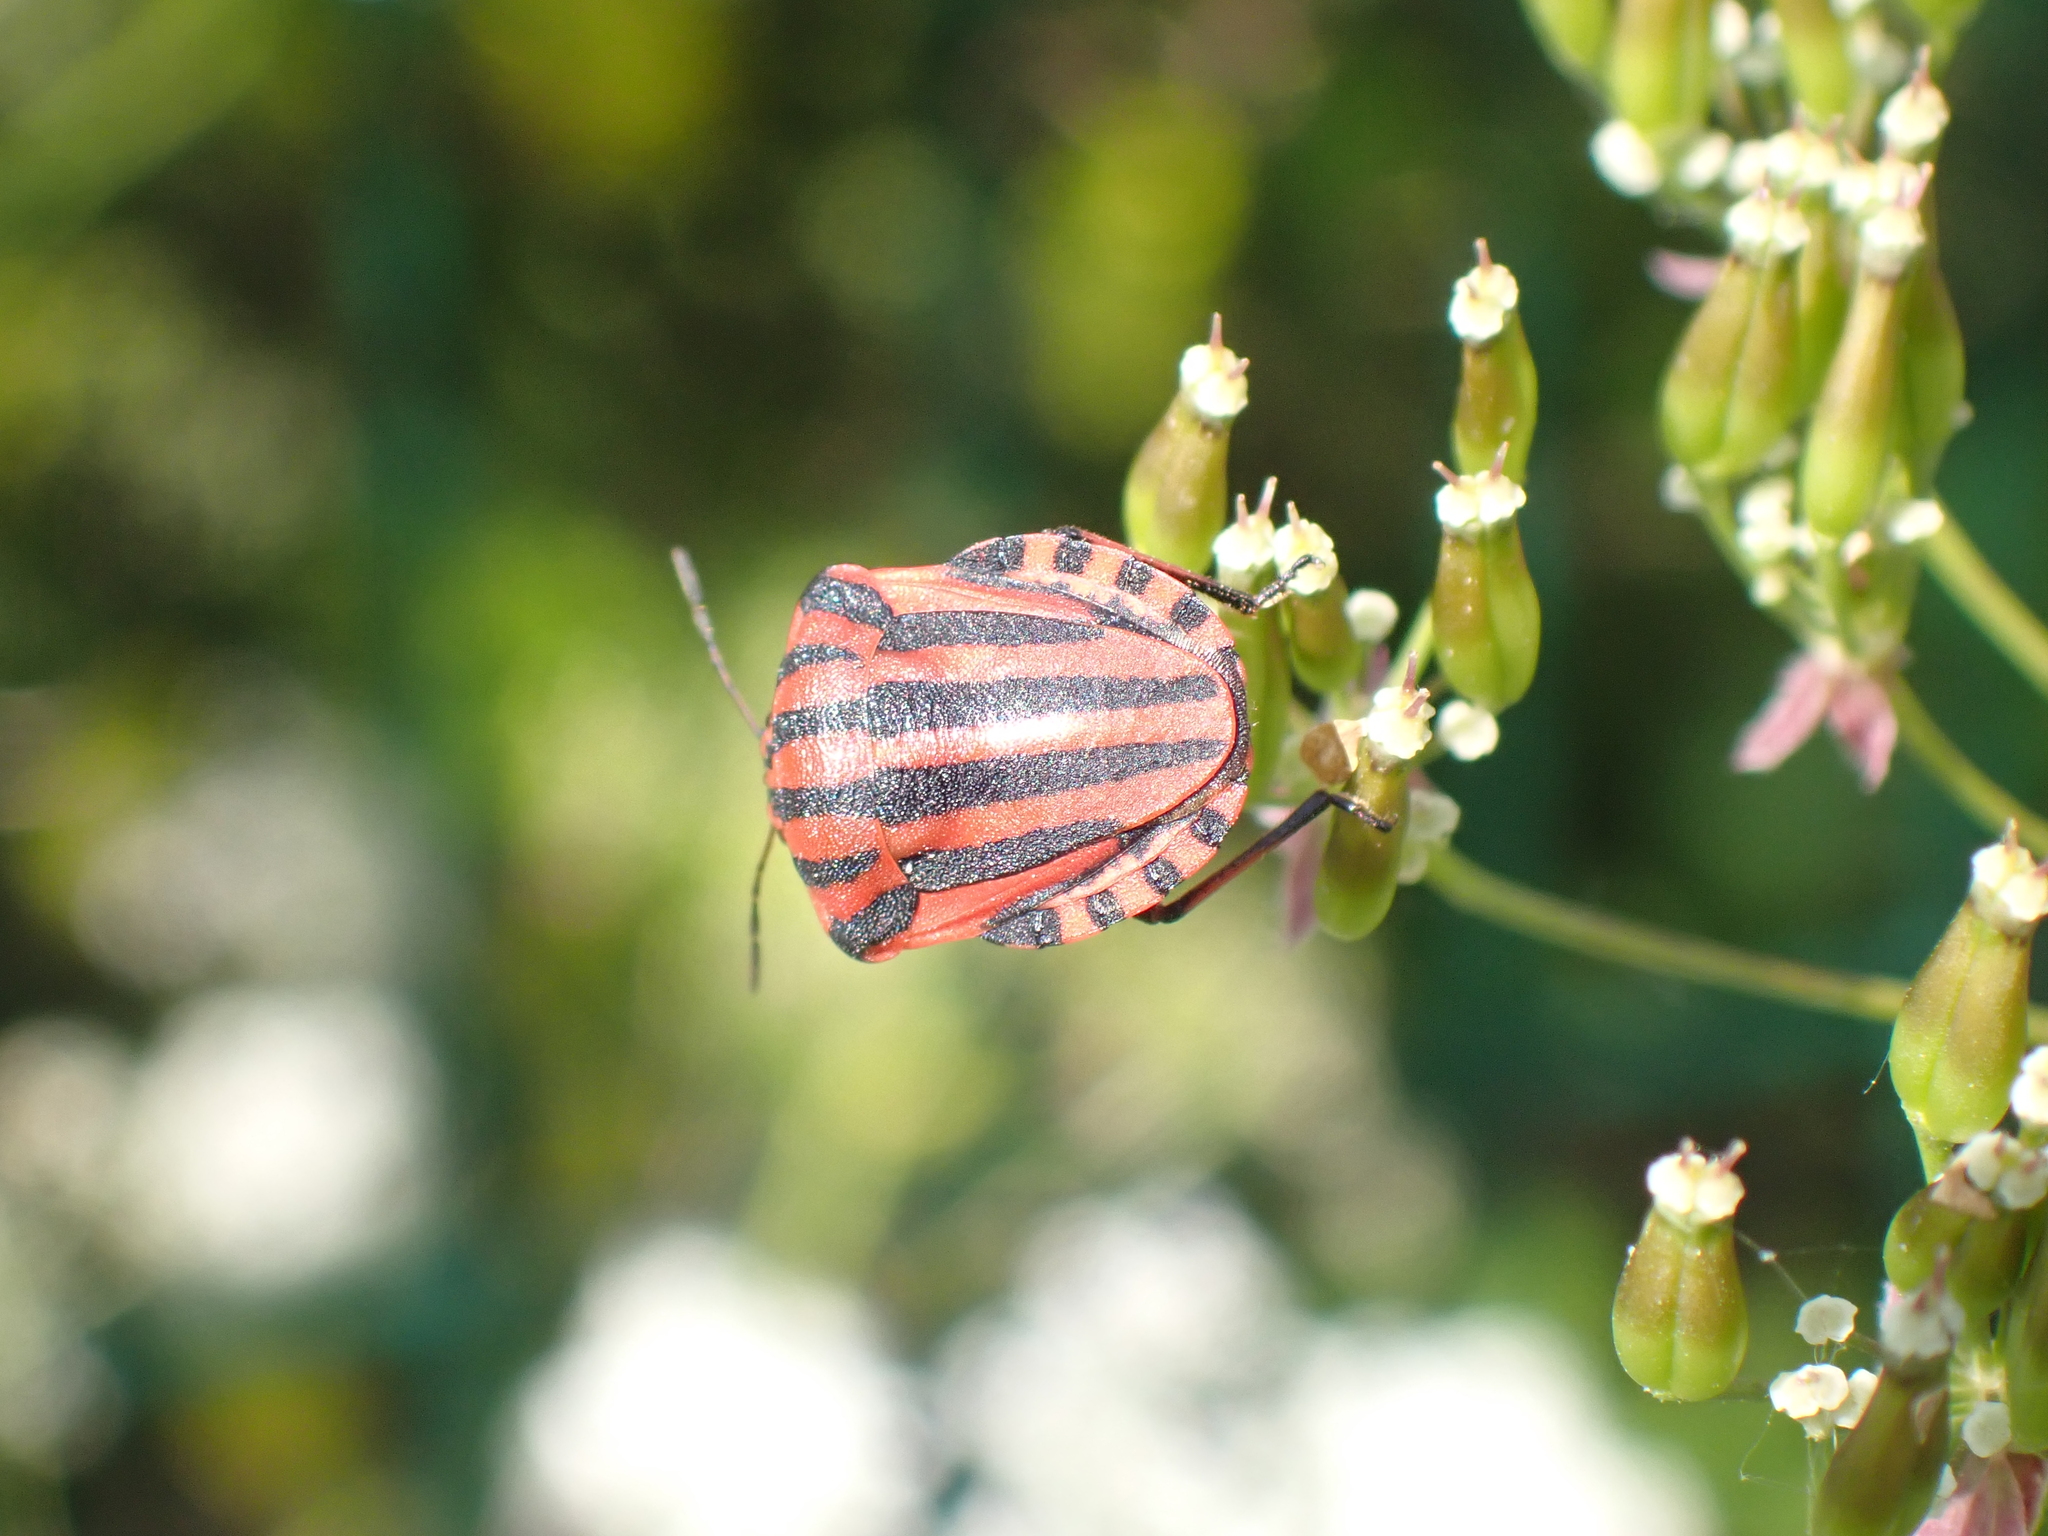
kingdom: Animalia
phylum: Arthropoda
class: Insecta
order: Hemiptera
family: Pentatomidae
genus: Graphosoma
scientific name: Graphosoma italicum
